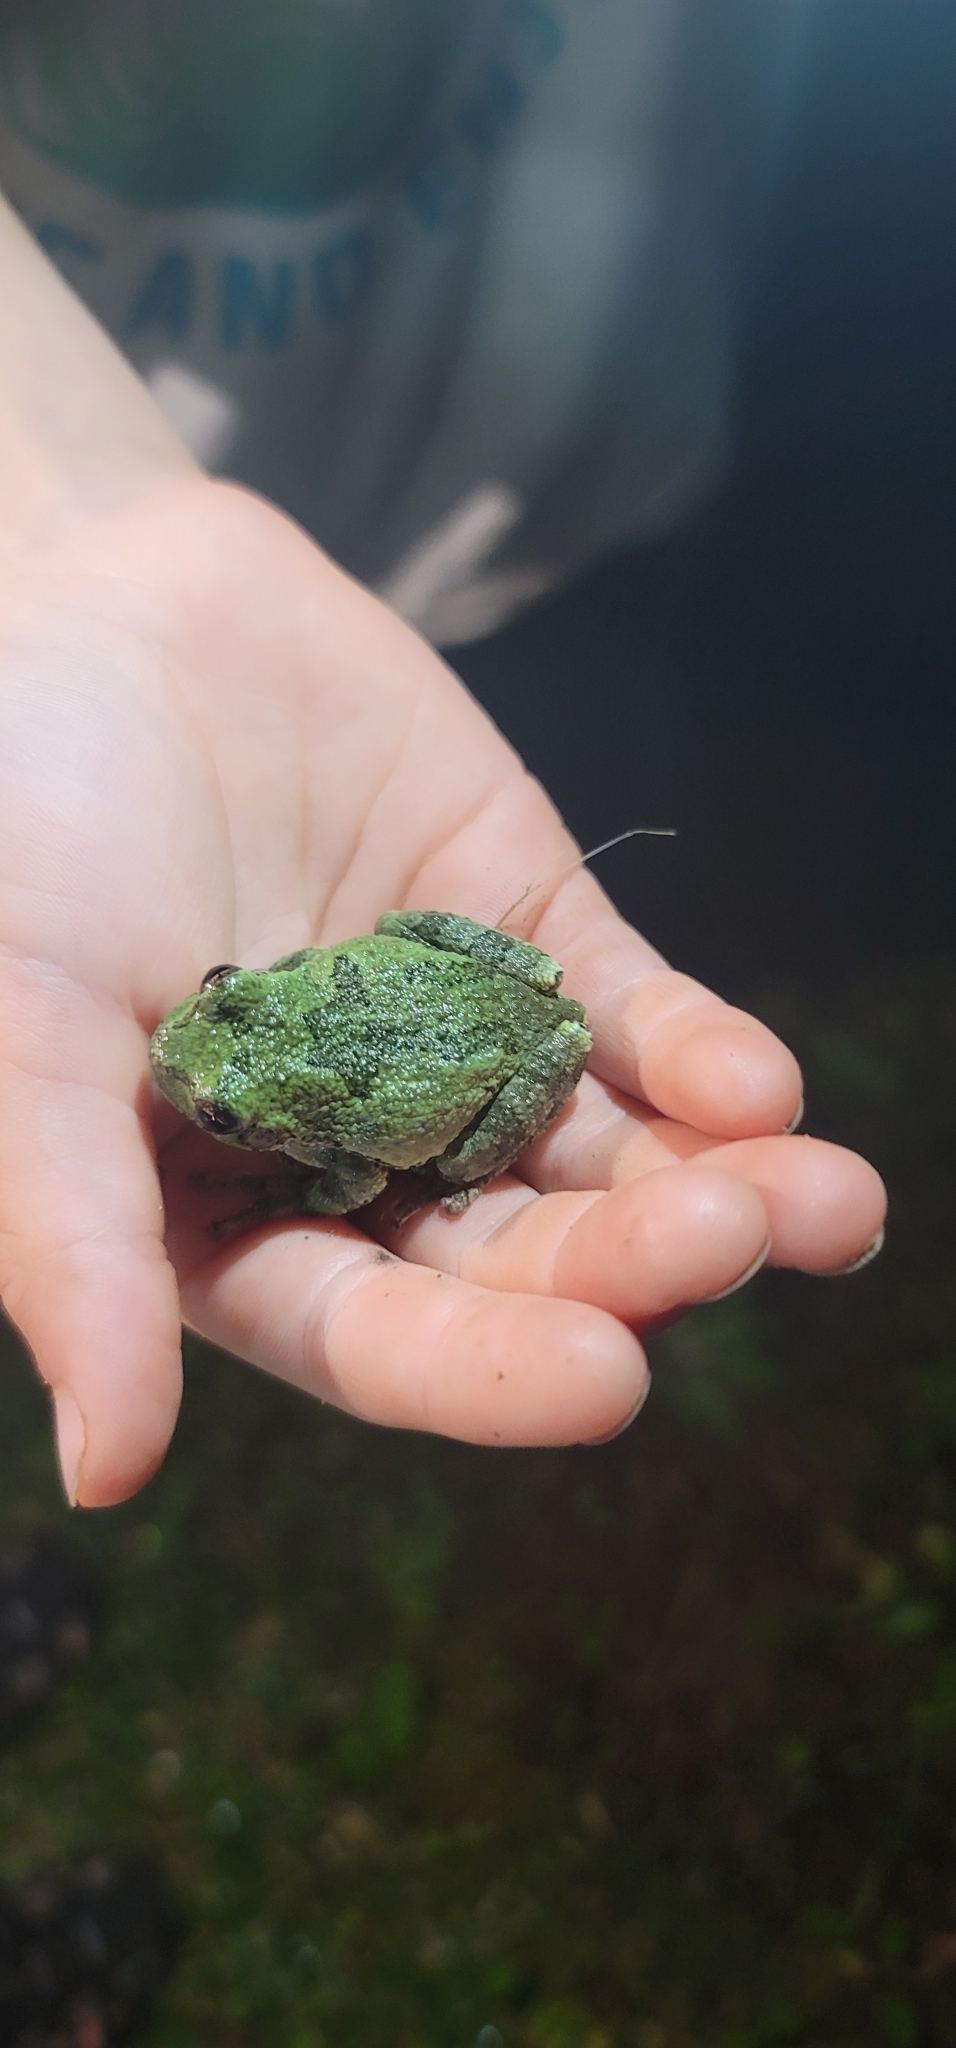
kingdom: Animalia
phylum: Chordata
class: Amphibia
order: Anura
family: Hylidae
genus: Dryophytes
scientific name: Dryophytes versicolor
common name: Gray treefrog
